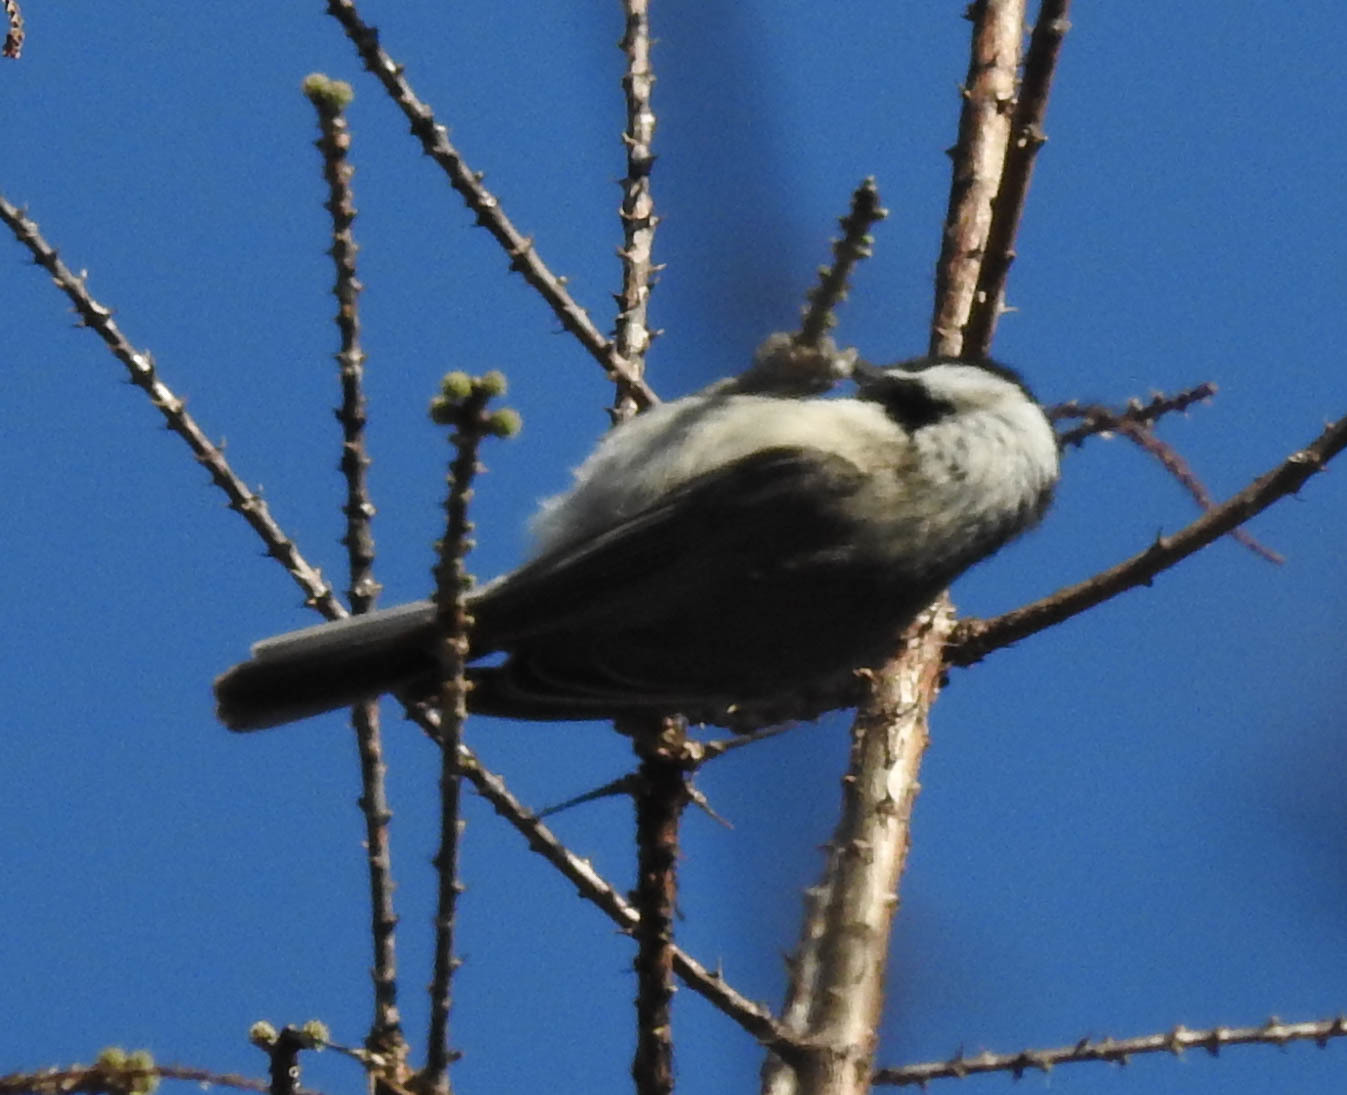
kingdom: Animalia
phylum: Chordata
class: Aves
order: Passeriformes
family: Paridae
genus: Poecile
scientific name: Poecile carolinensis
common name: Carolina chickadee
